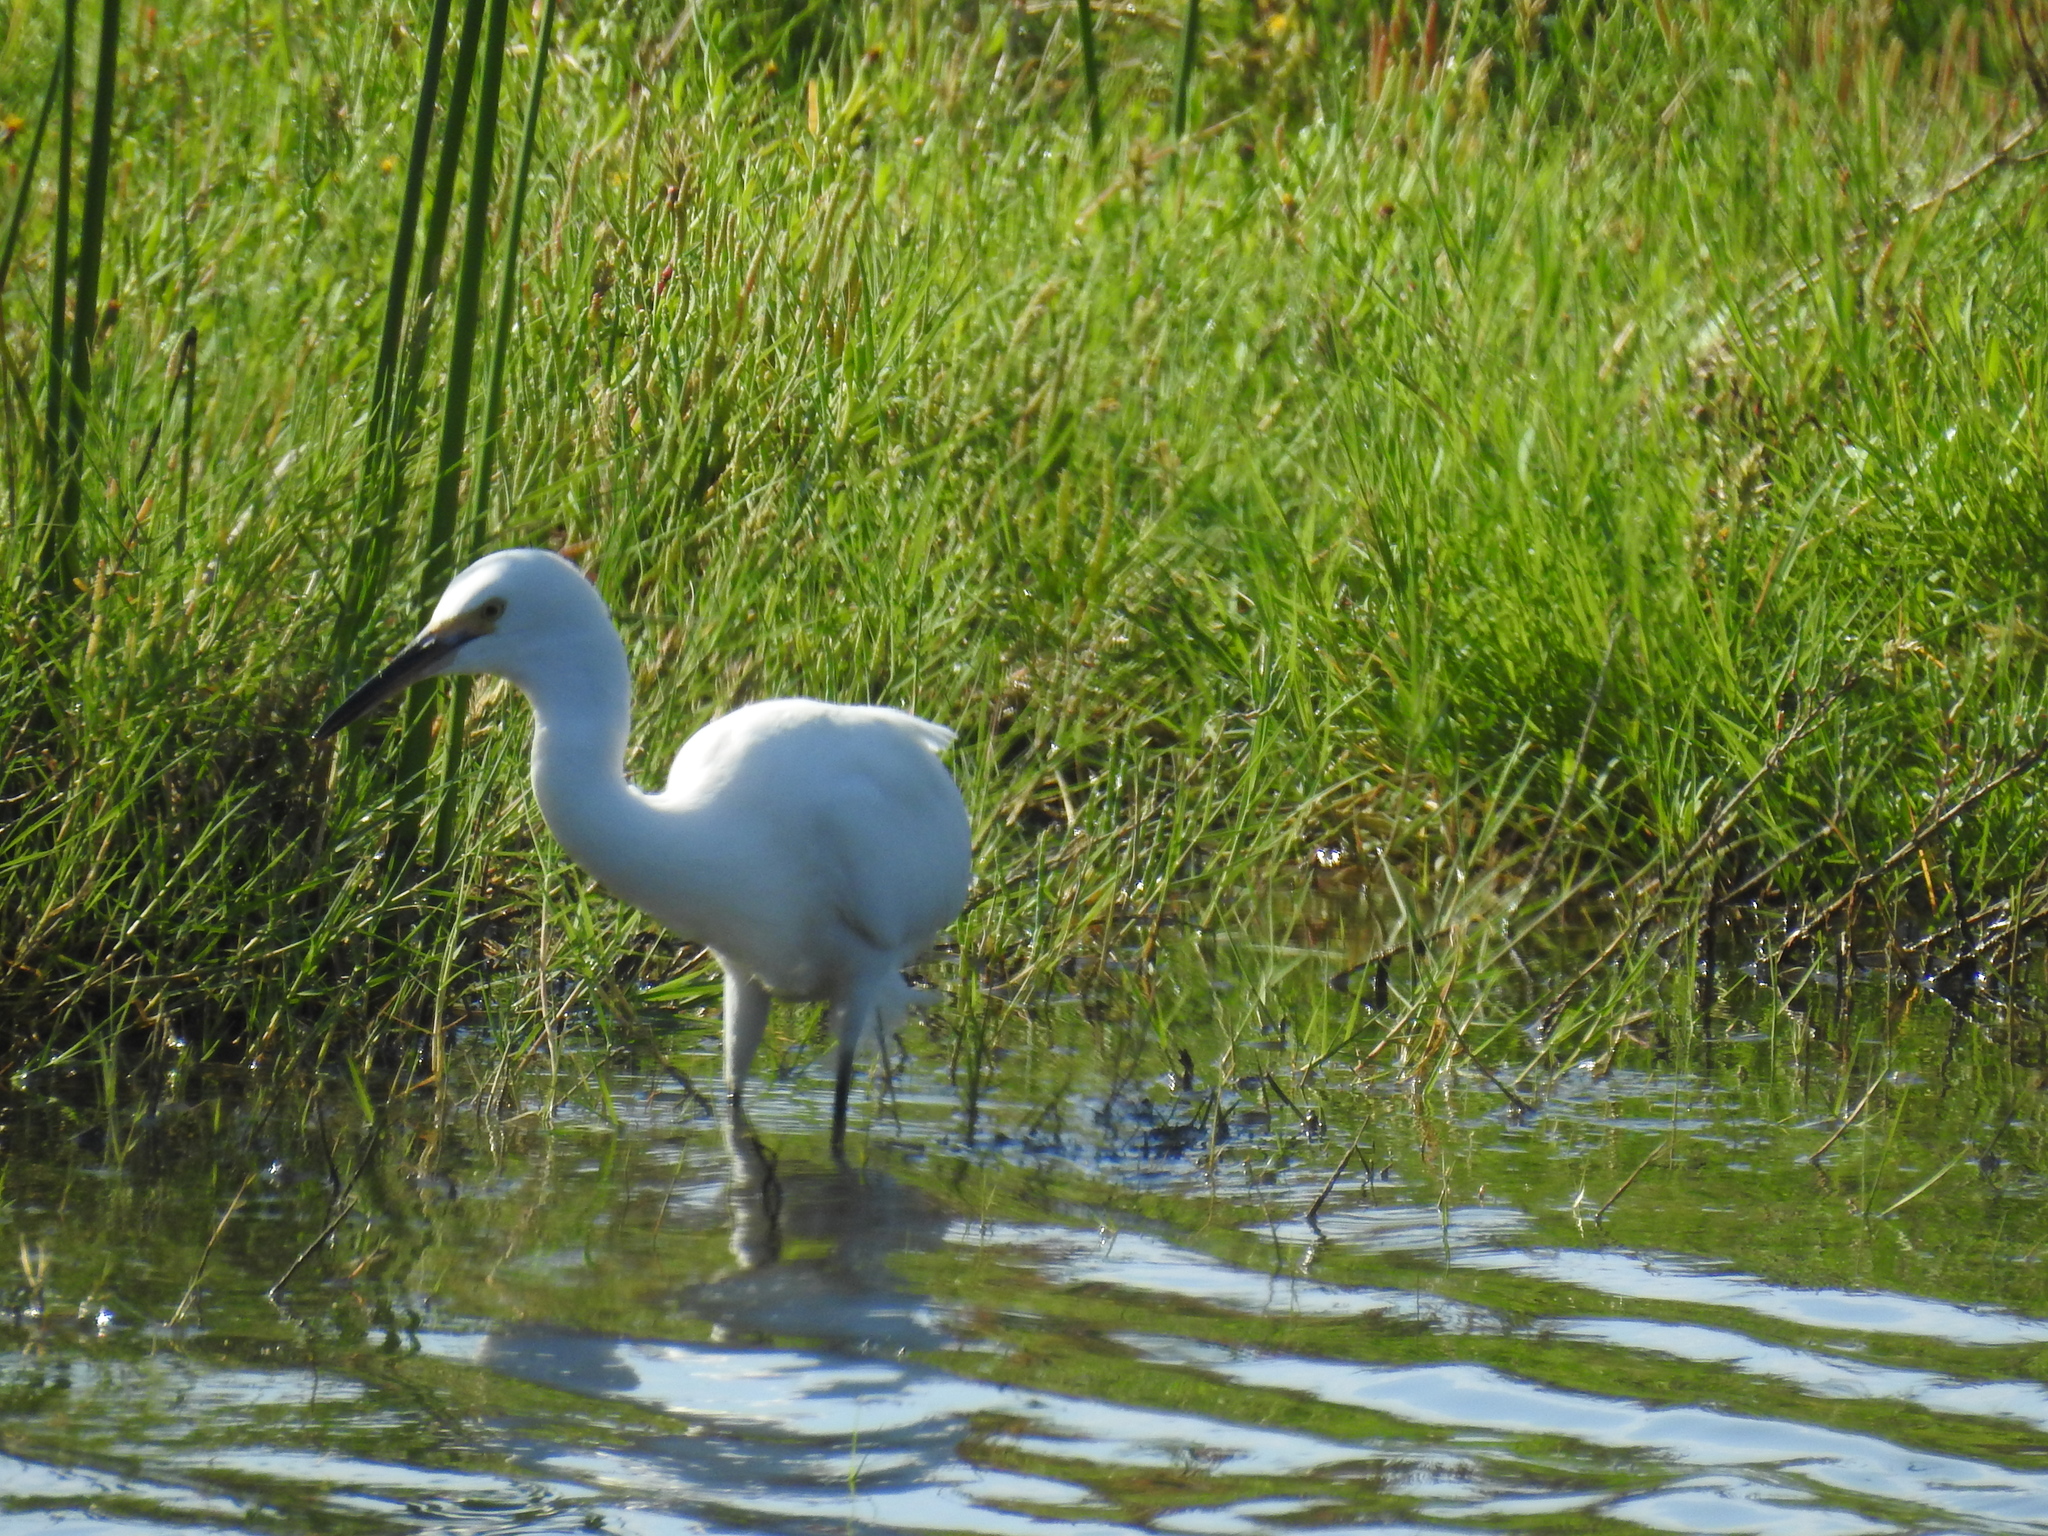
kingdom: Animalia
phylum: Chordata
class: Aves
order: Pelecaniformes
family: Ardeidae
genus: Egretta
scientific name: Egretta thula
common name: Snowy egret
